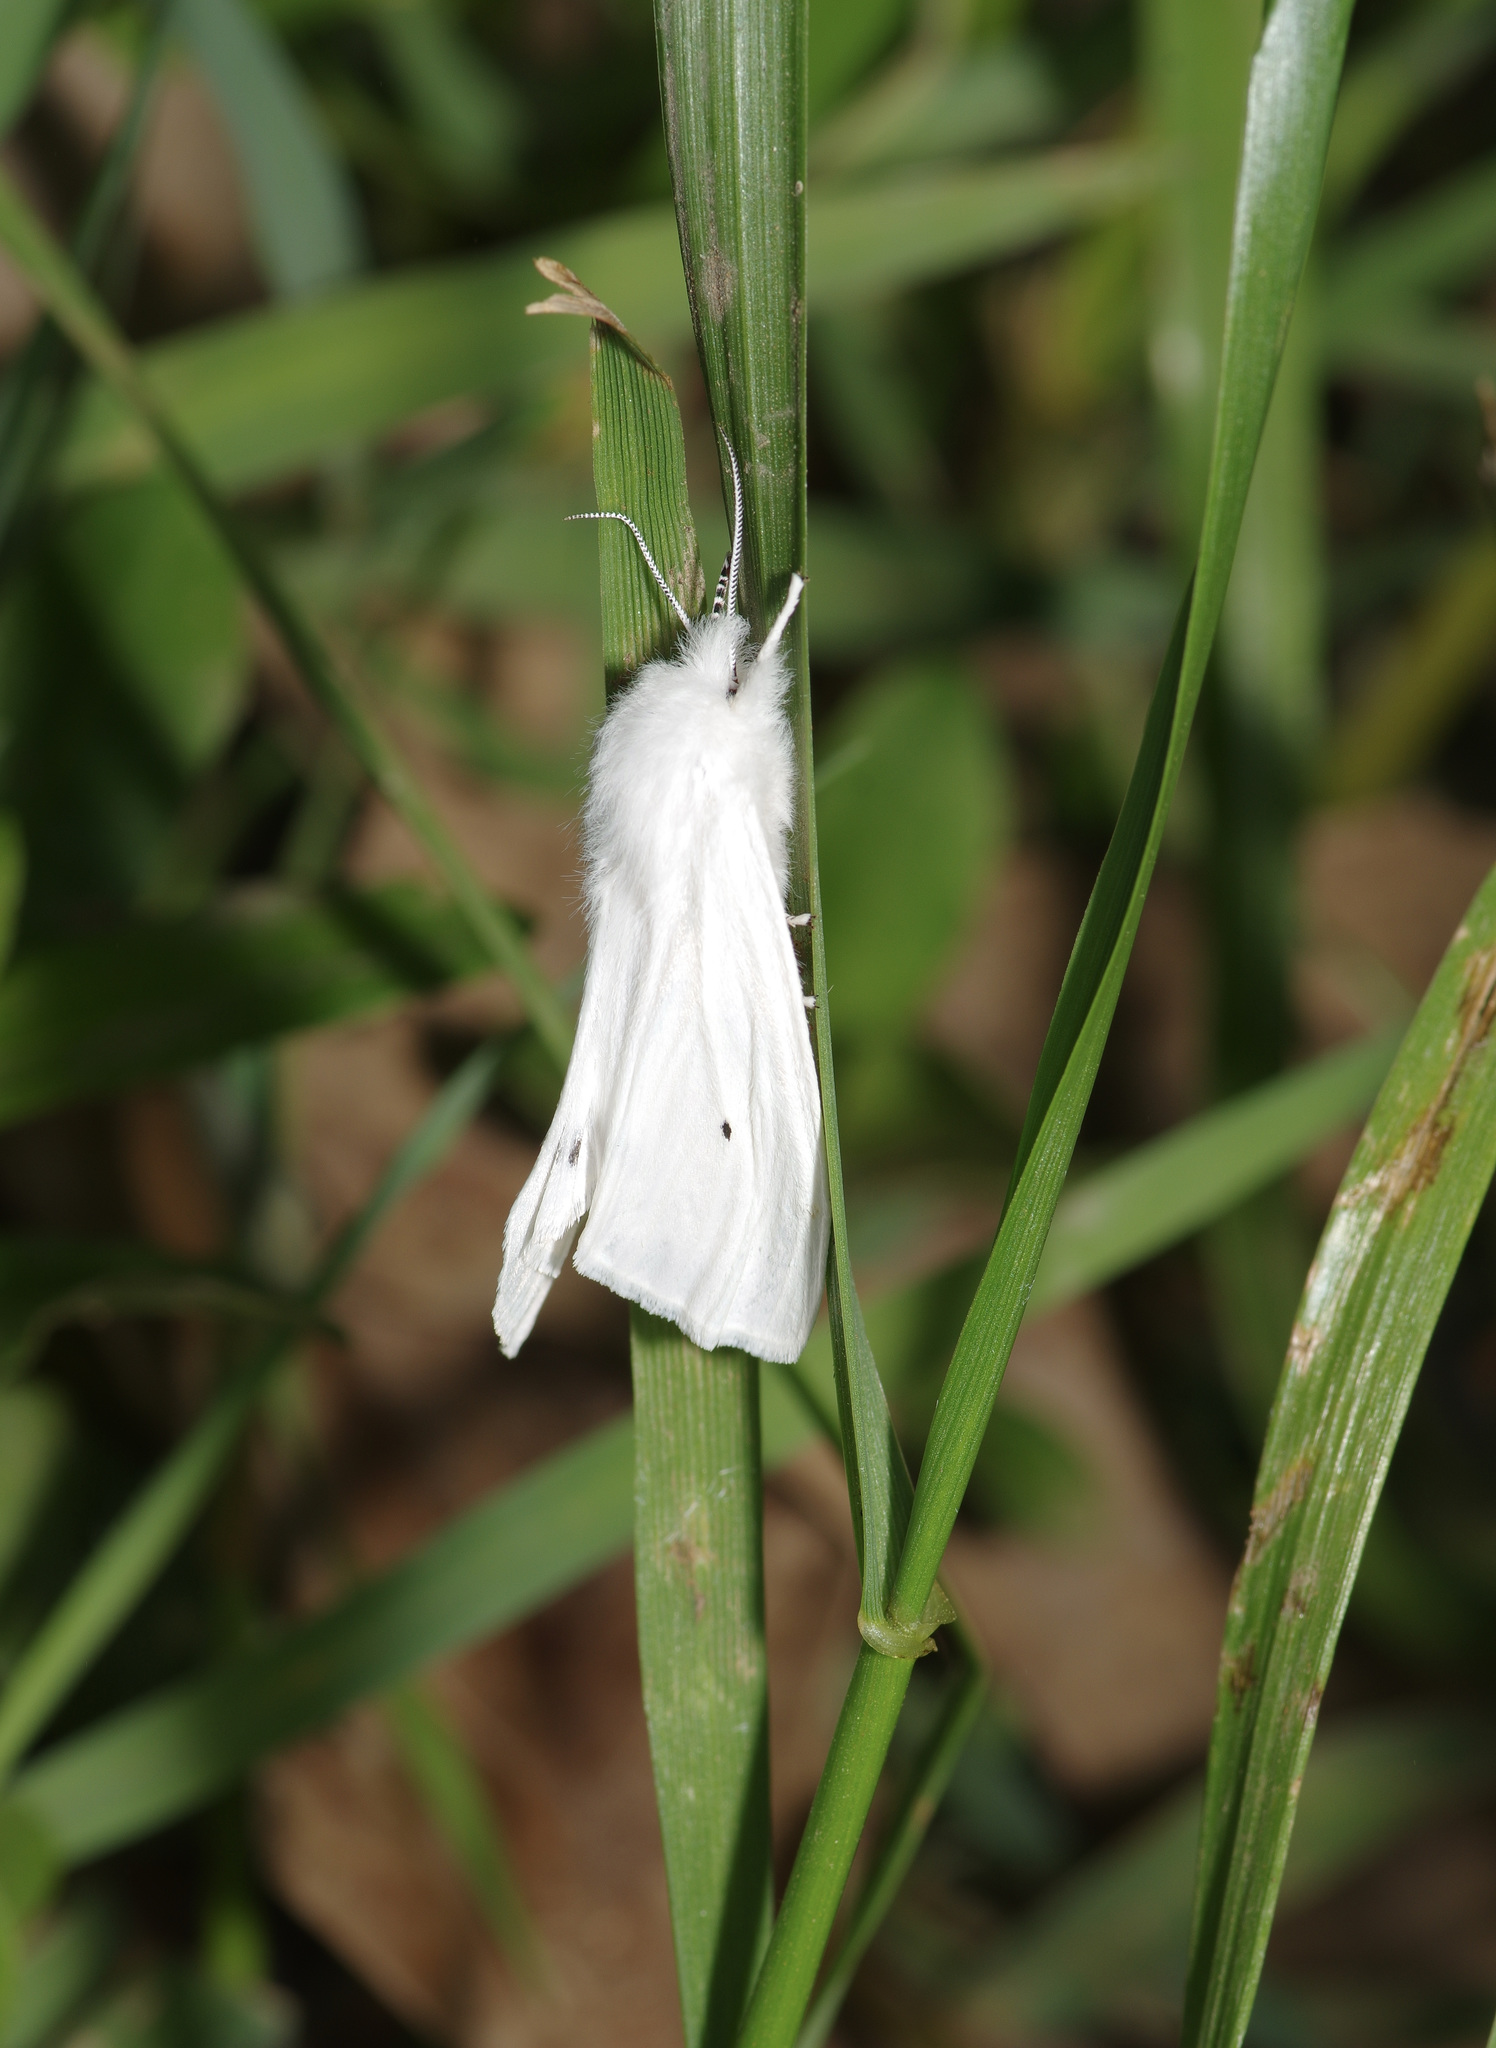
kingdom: Animalia
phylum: Arthropoda
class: Insecta
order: Lepidoptera
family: Erebidae
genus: Spilosoma
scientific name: Spilosoma virginica
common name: Virginia tiger moth
